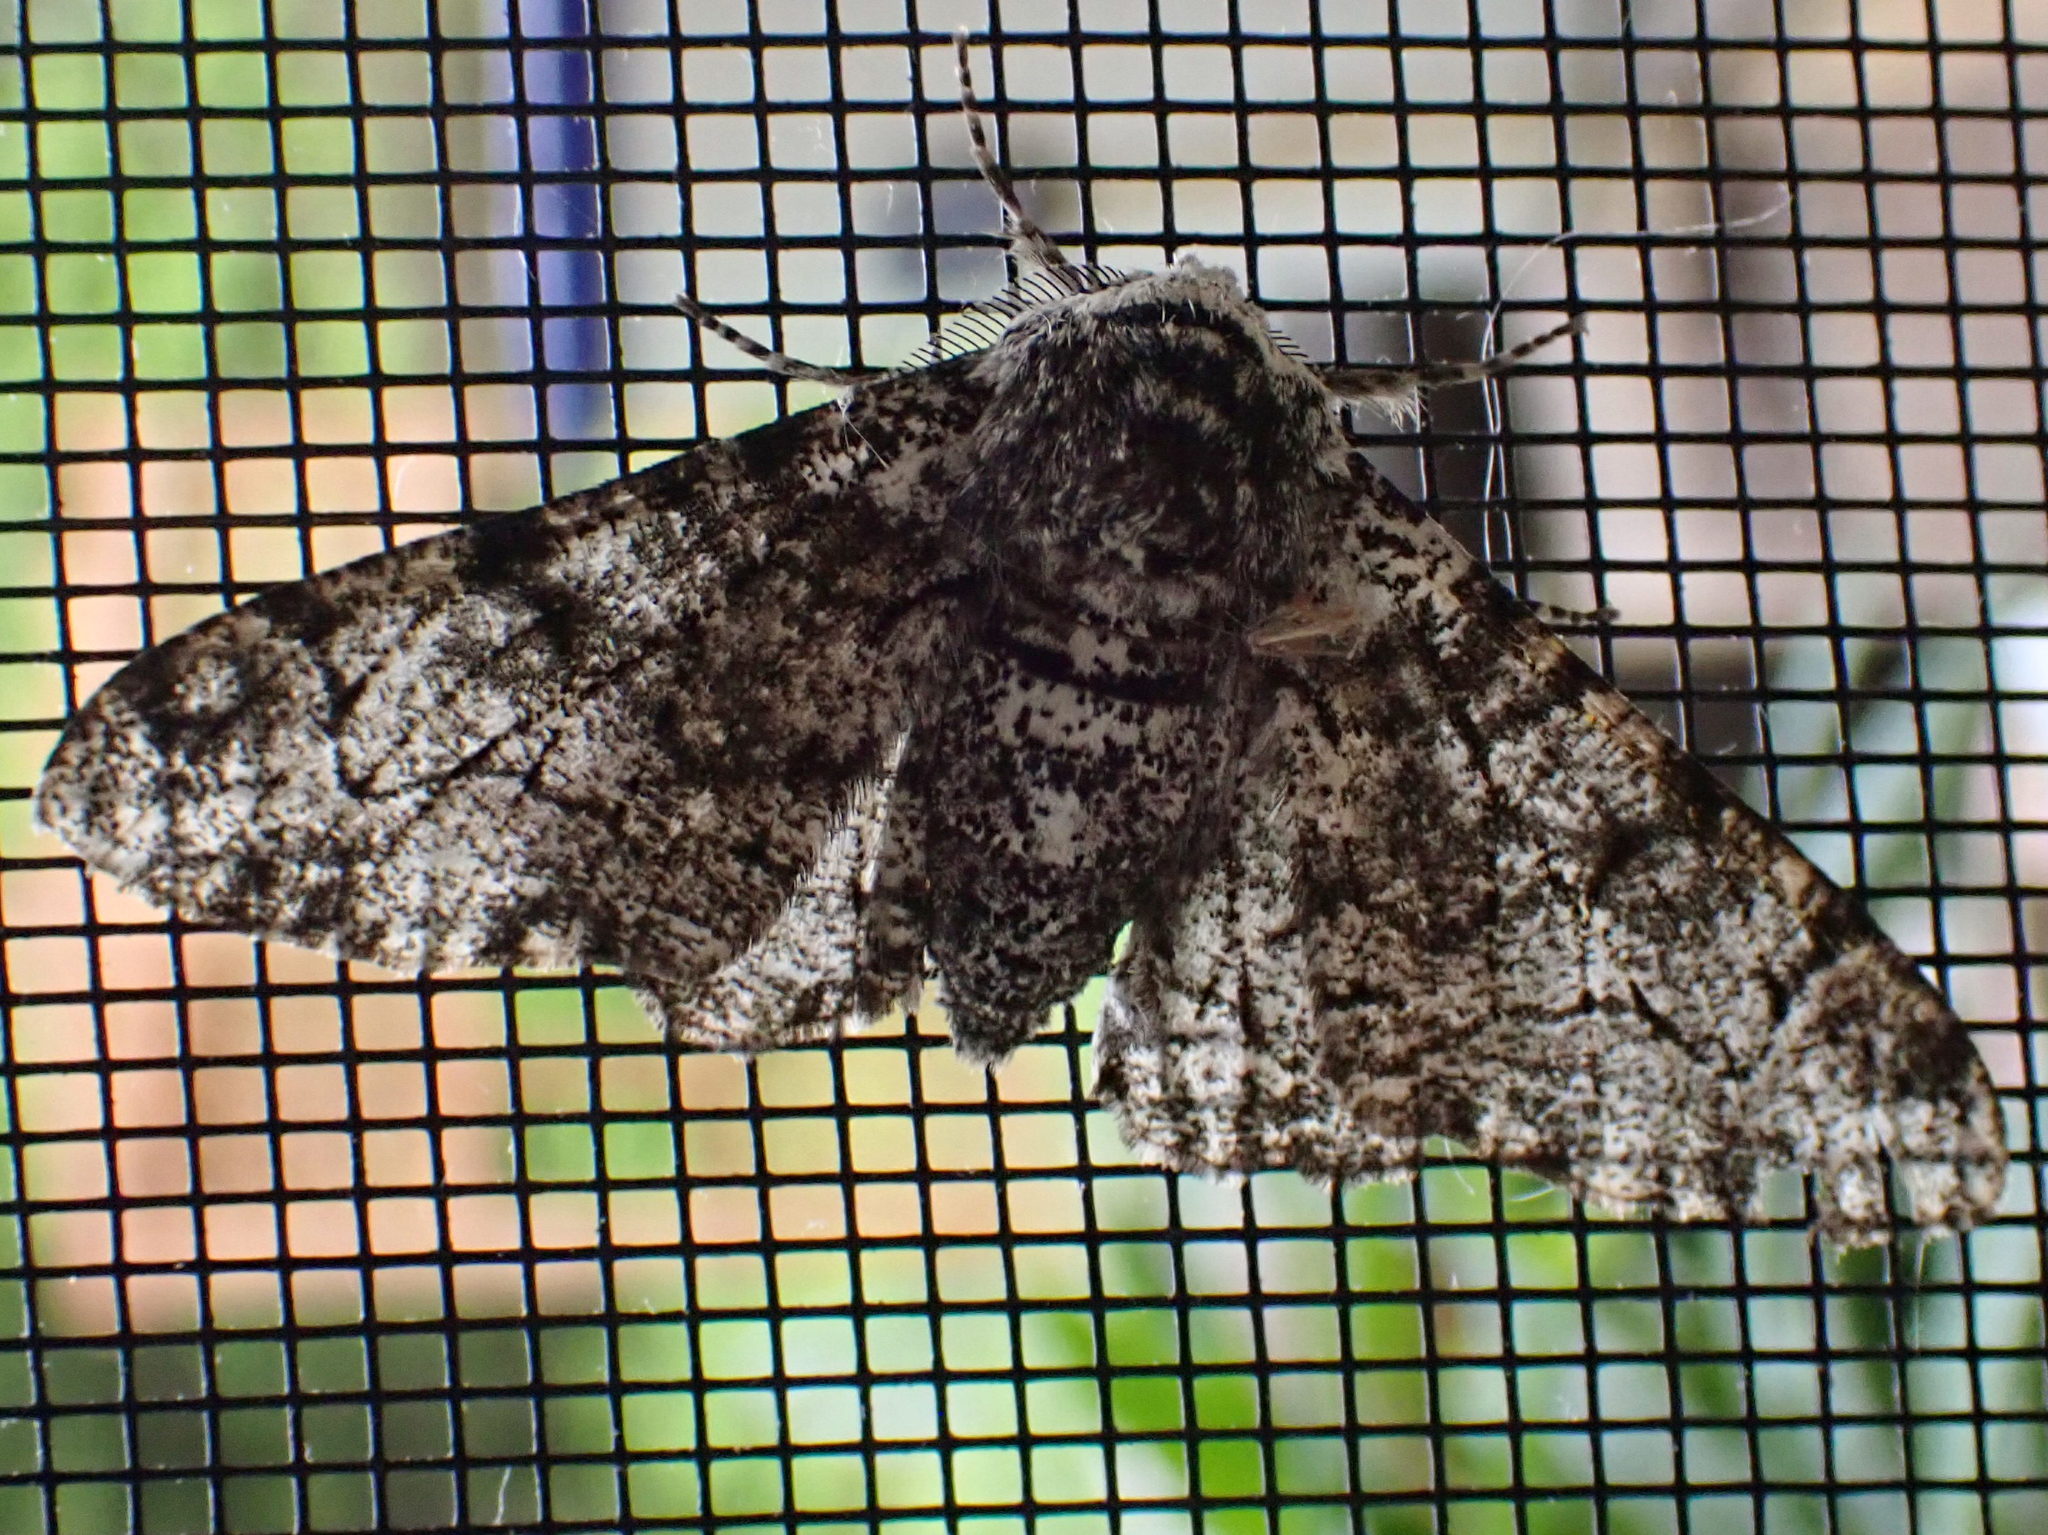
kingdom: Animalia
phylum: Arthropoda
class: Insecta
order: Lepidoptera
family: Geometridae
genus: Biston
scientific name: Biston betularia
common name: Peppered moth
